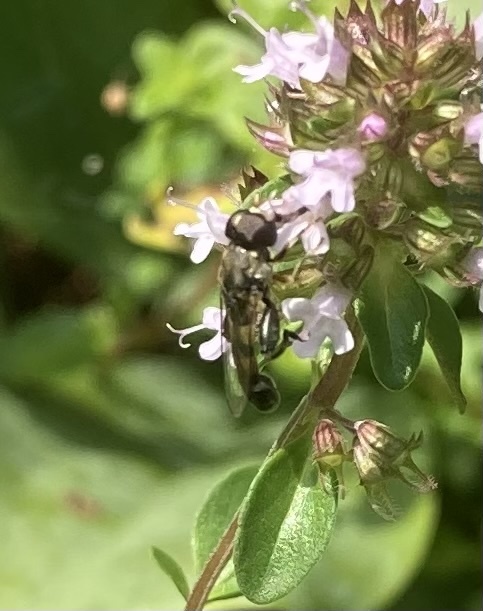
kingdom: Animalia
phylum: Arthropoda
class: Insecta
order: Diptera
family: Syrphidae
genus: Syritta
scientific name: Syritta pipiens
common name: Hover fly
